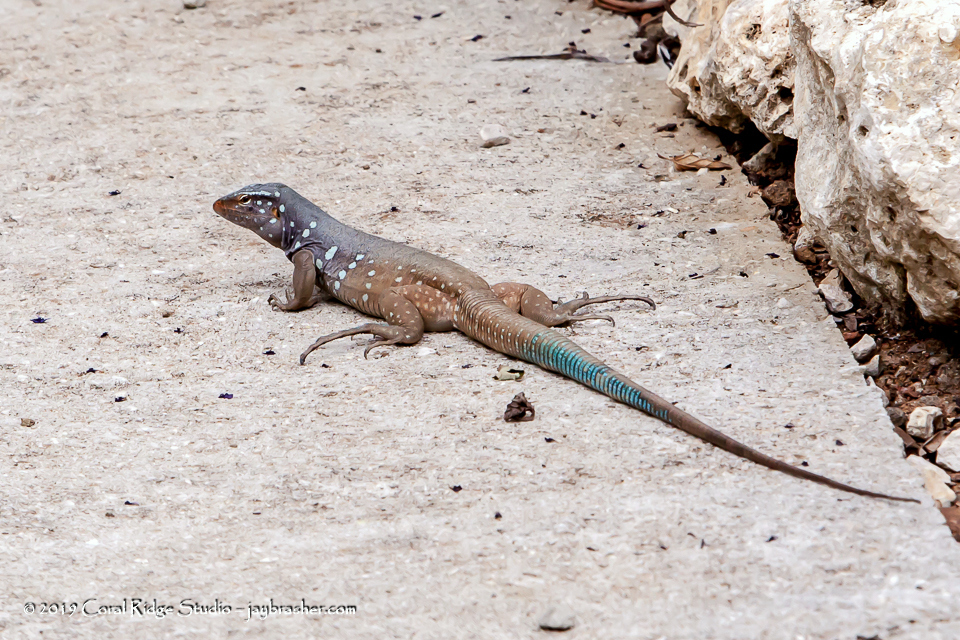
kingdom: Animalia
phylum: Chordata
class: Squamata
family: Teiidae
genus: Cnemidophorus
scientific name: Cnemidophorus ruthveni
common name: Bonaire whiptail
